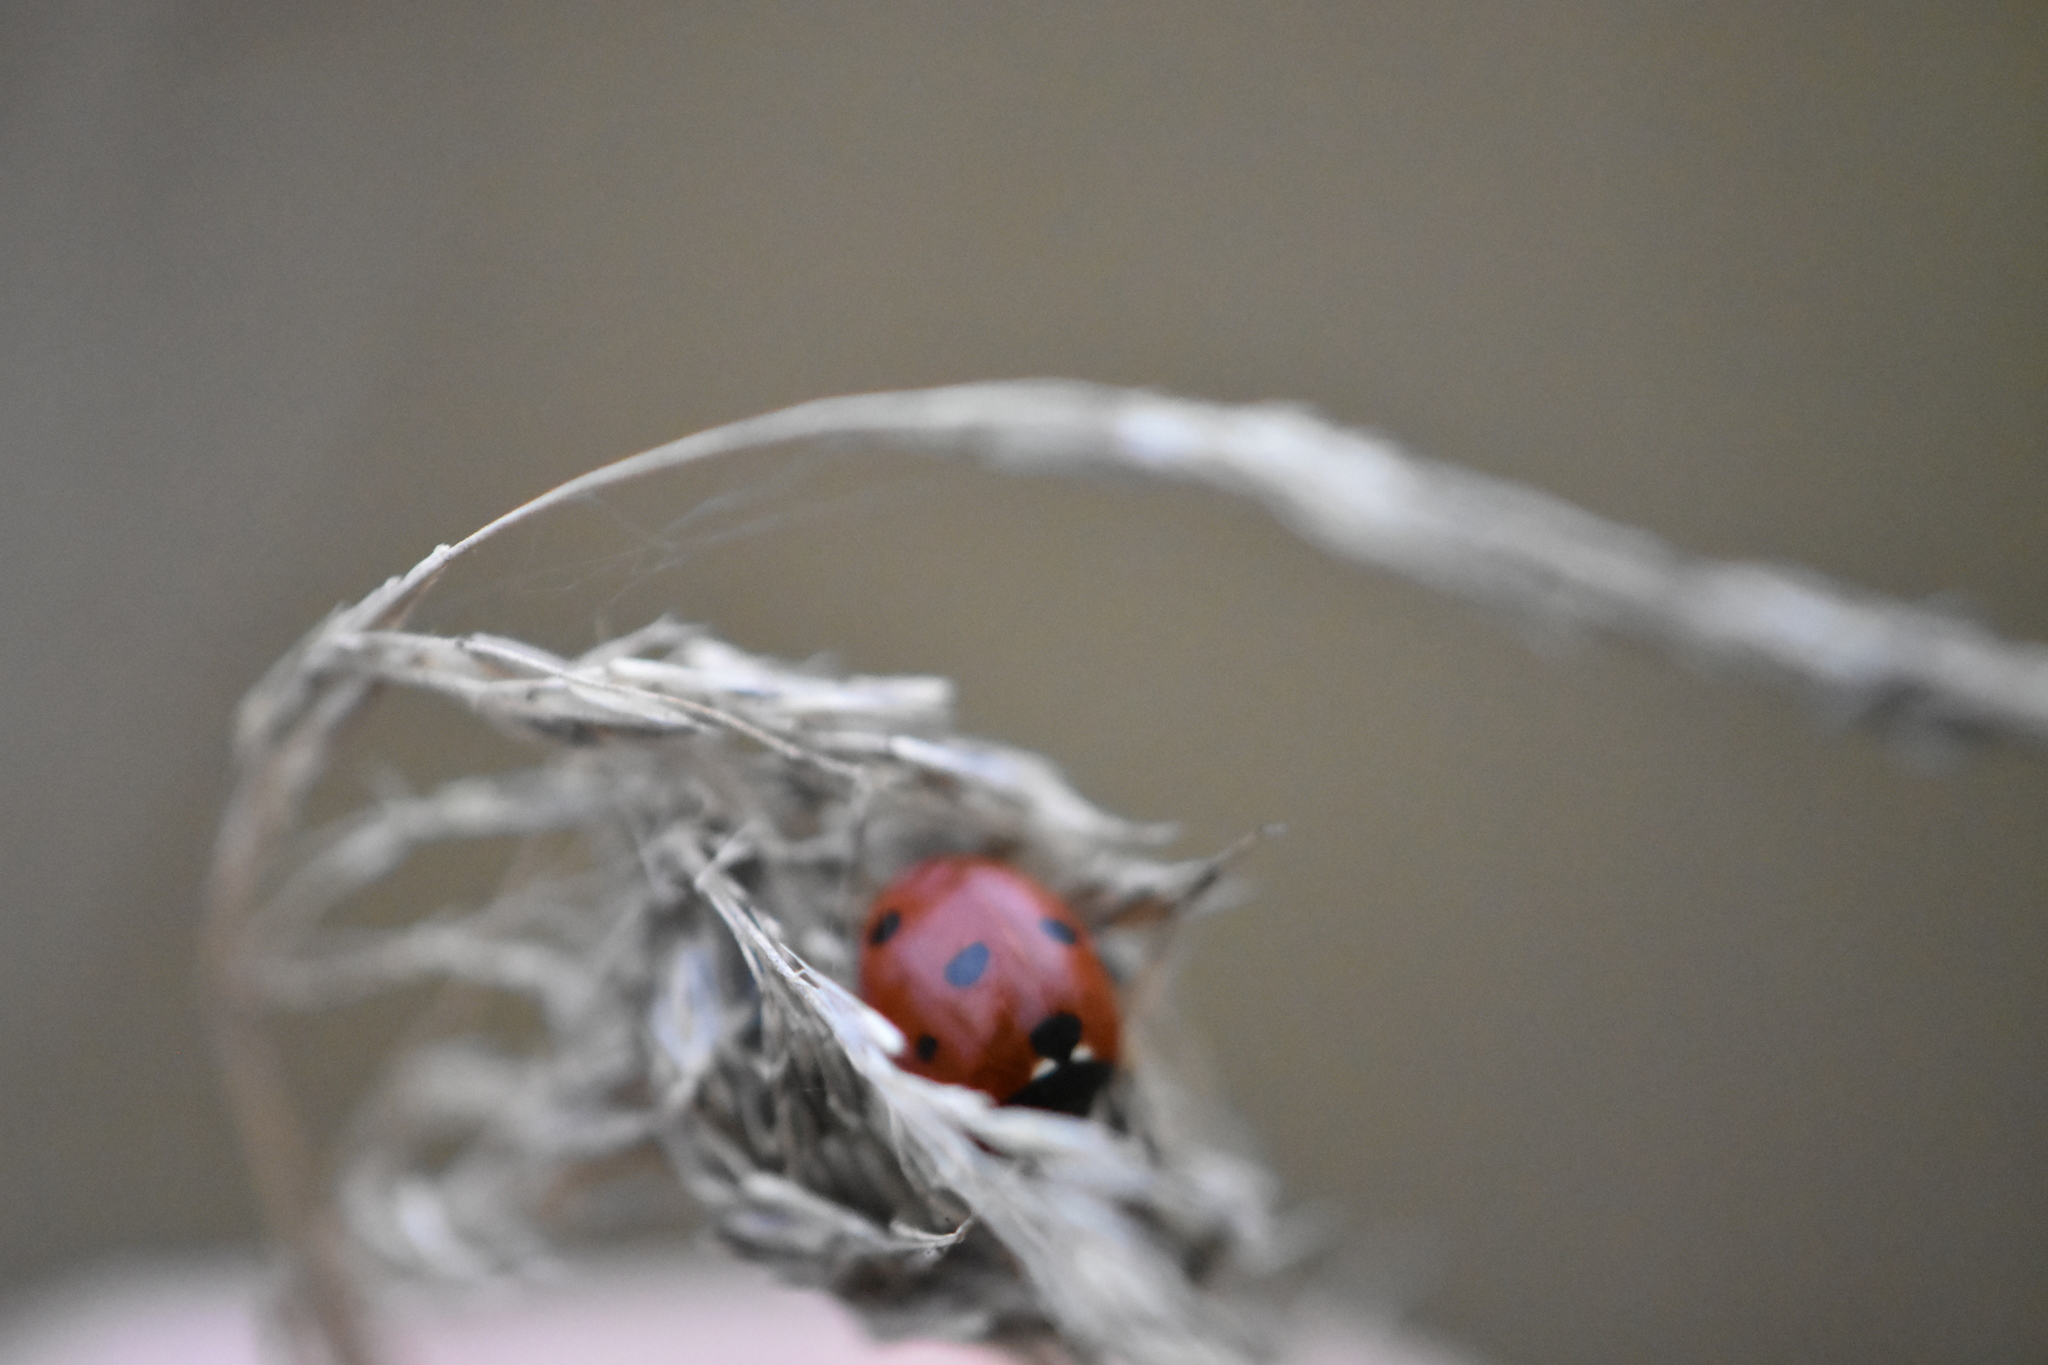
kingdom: Animalia
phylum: Arthropoda
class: Insecta
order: Coleoptera
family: Coccinellidae
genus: Coccinella
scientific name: Coccinella septempunctata
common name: Sevenspotted lady beetle
